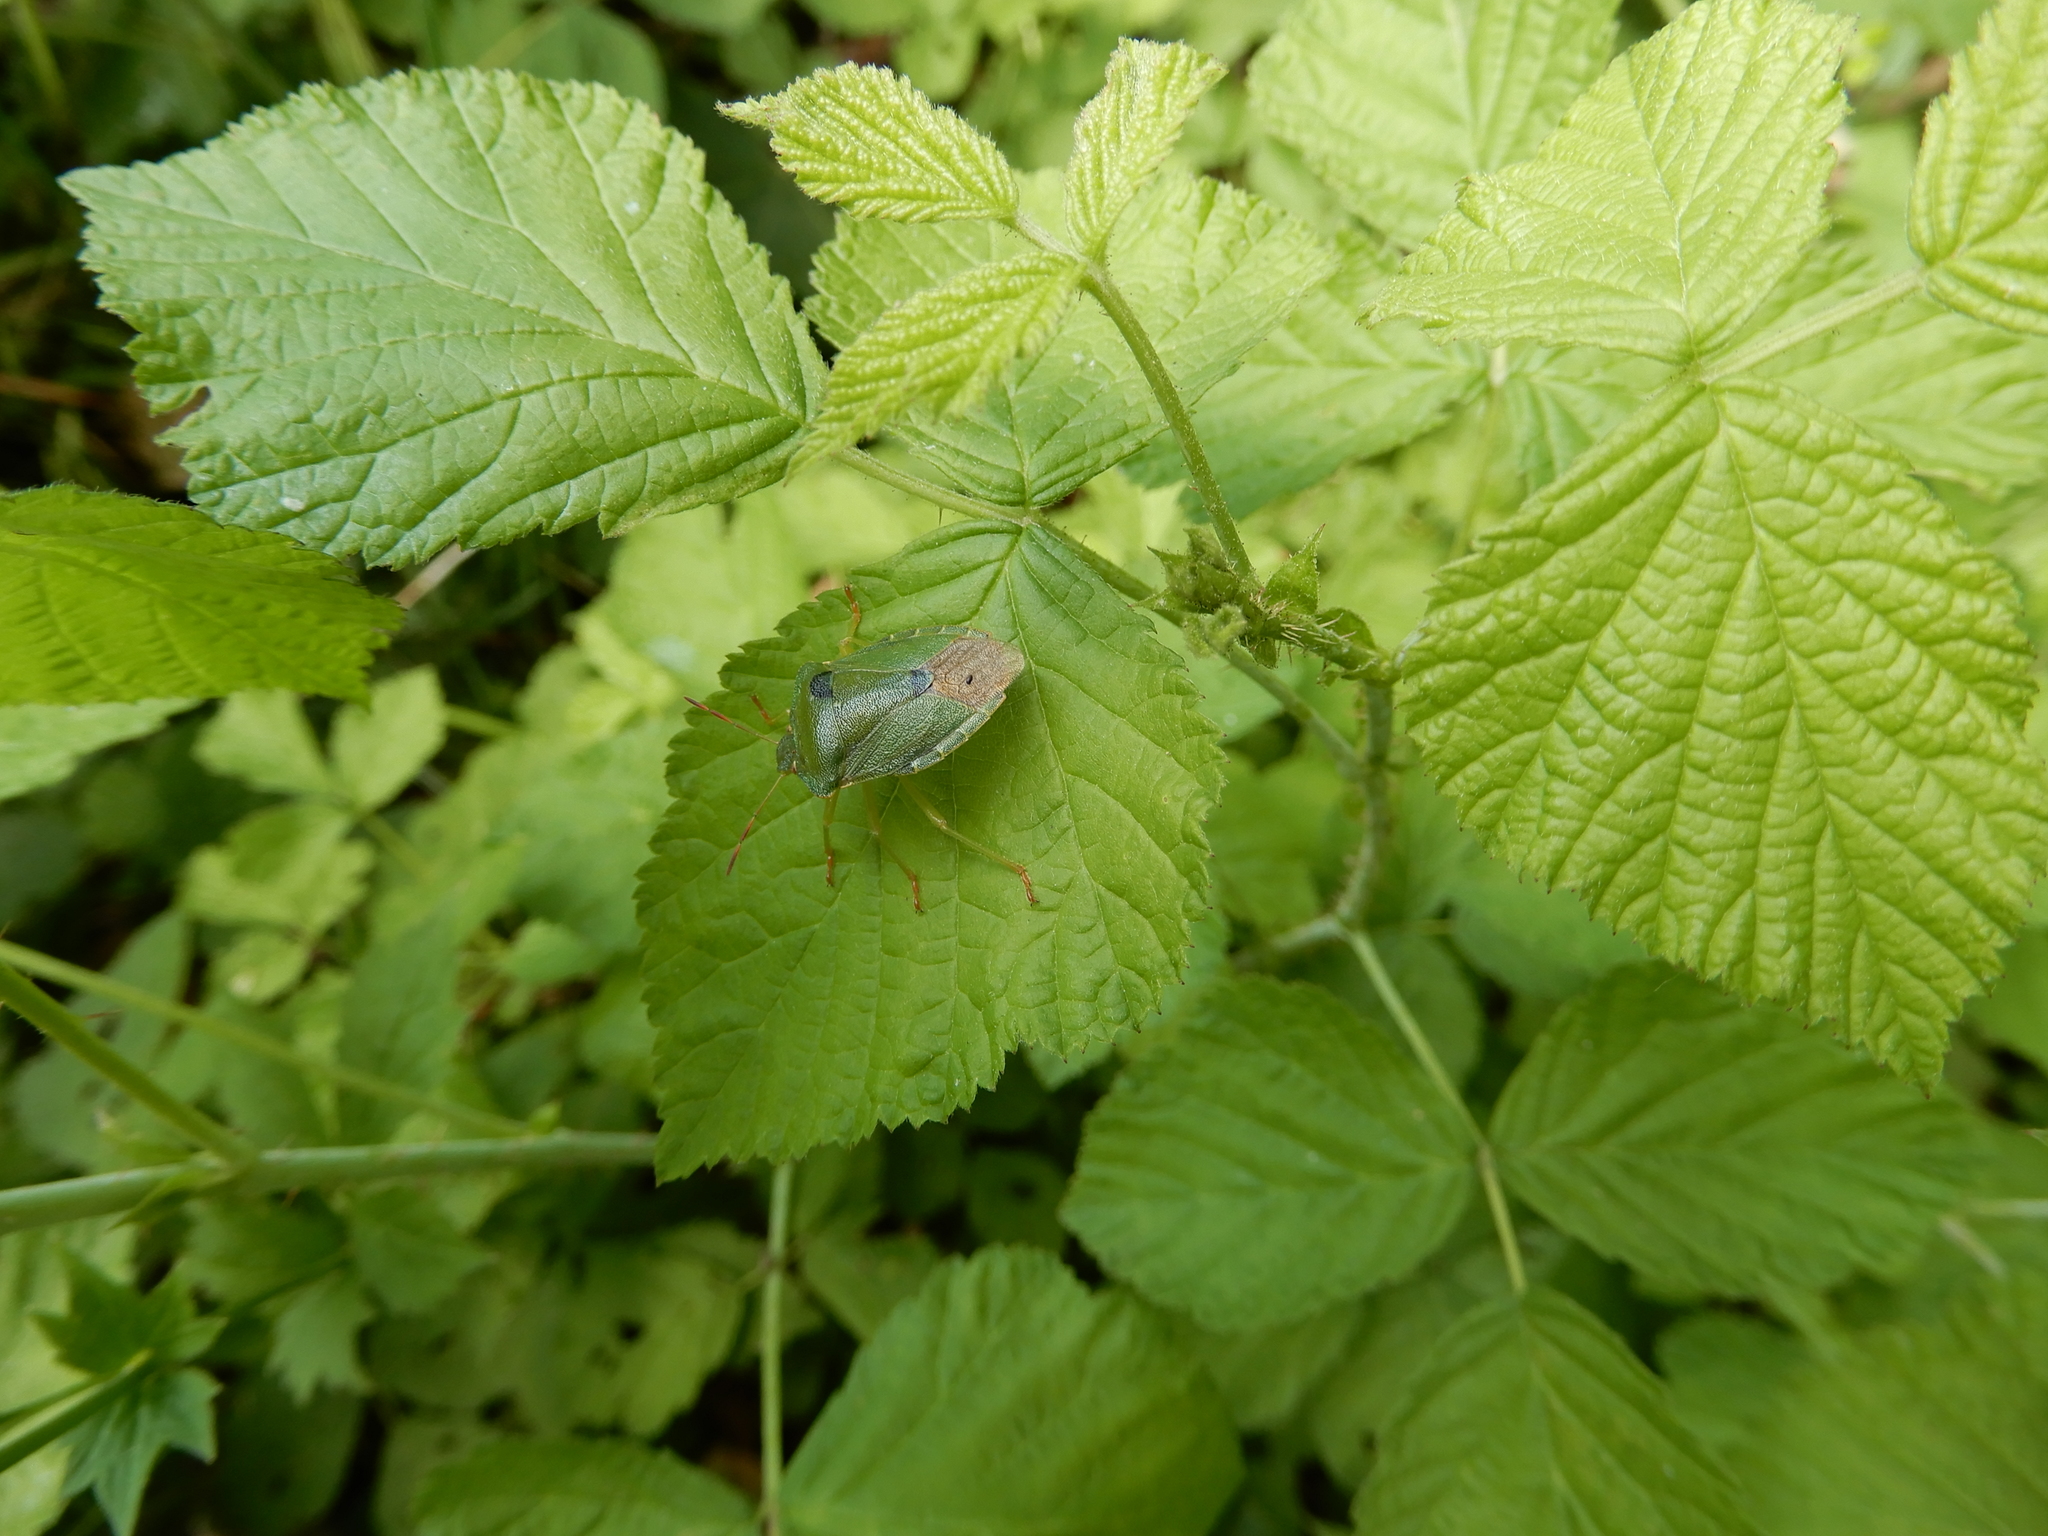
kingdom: Animalia
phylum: Arthropoda
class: Insecta
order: Hemiptera
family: Pentatomidae
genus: Palomena
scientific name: Palomena prasina
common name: Green shieldbug
